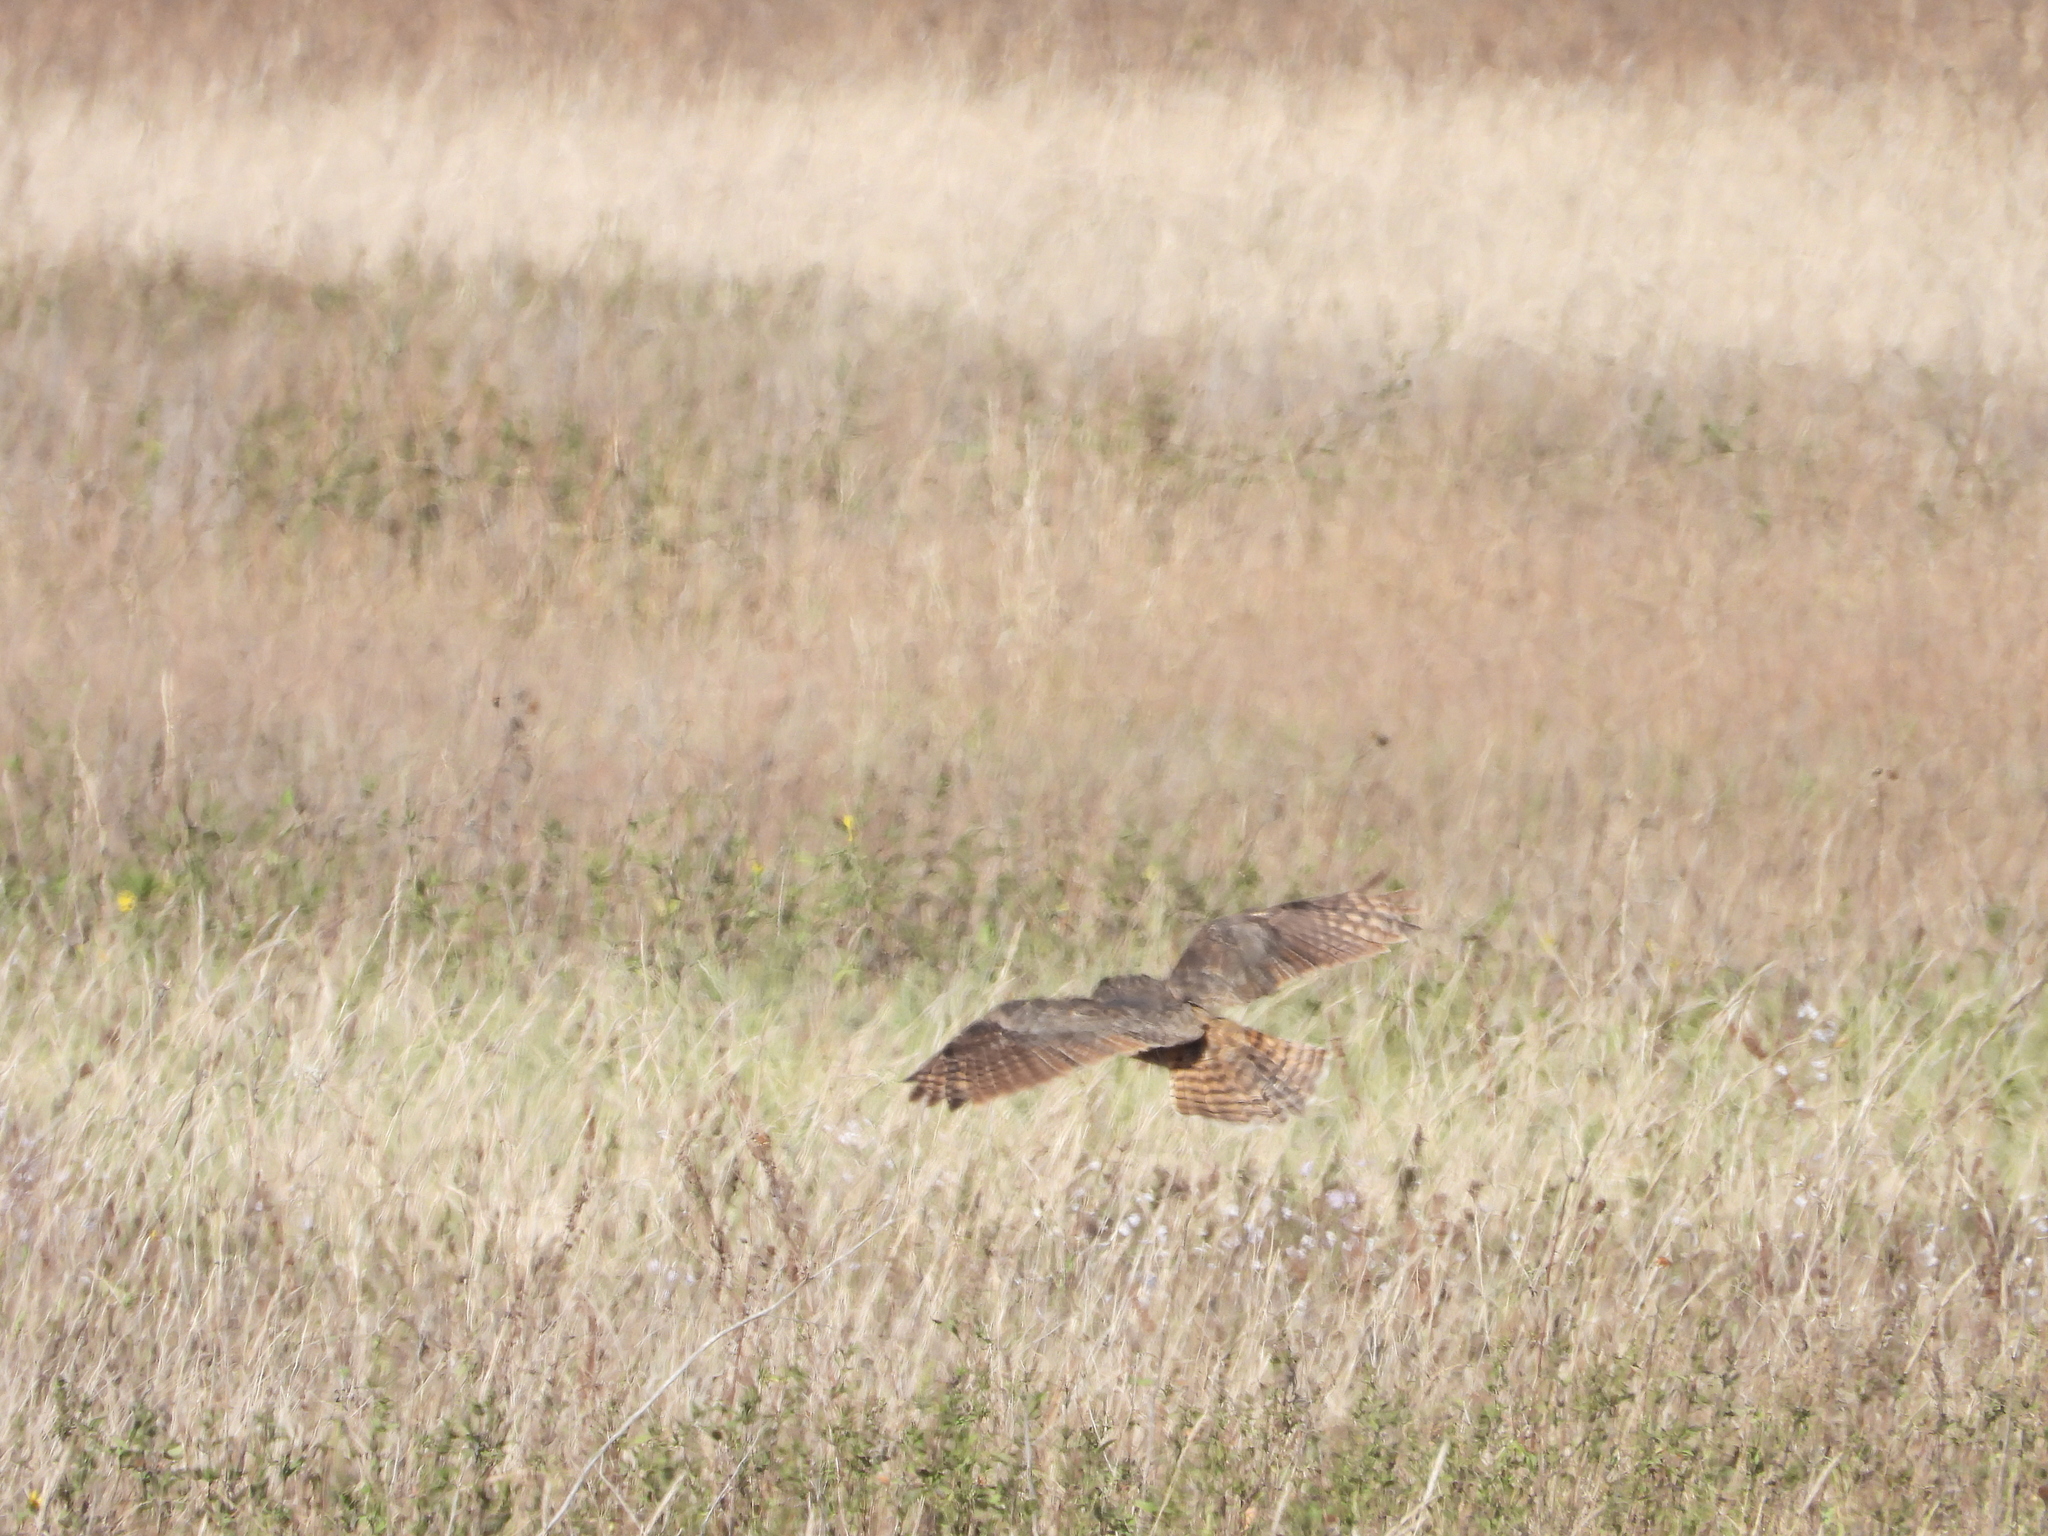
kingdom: Animalia
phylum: Chordata
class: Aves
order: Strigiformes
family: Strigidae
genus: Bubo
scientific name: Bubo virginianus
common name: Great horned owl
